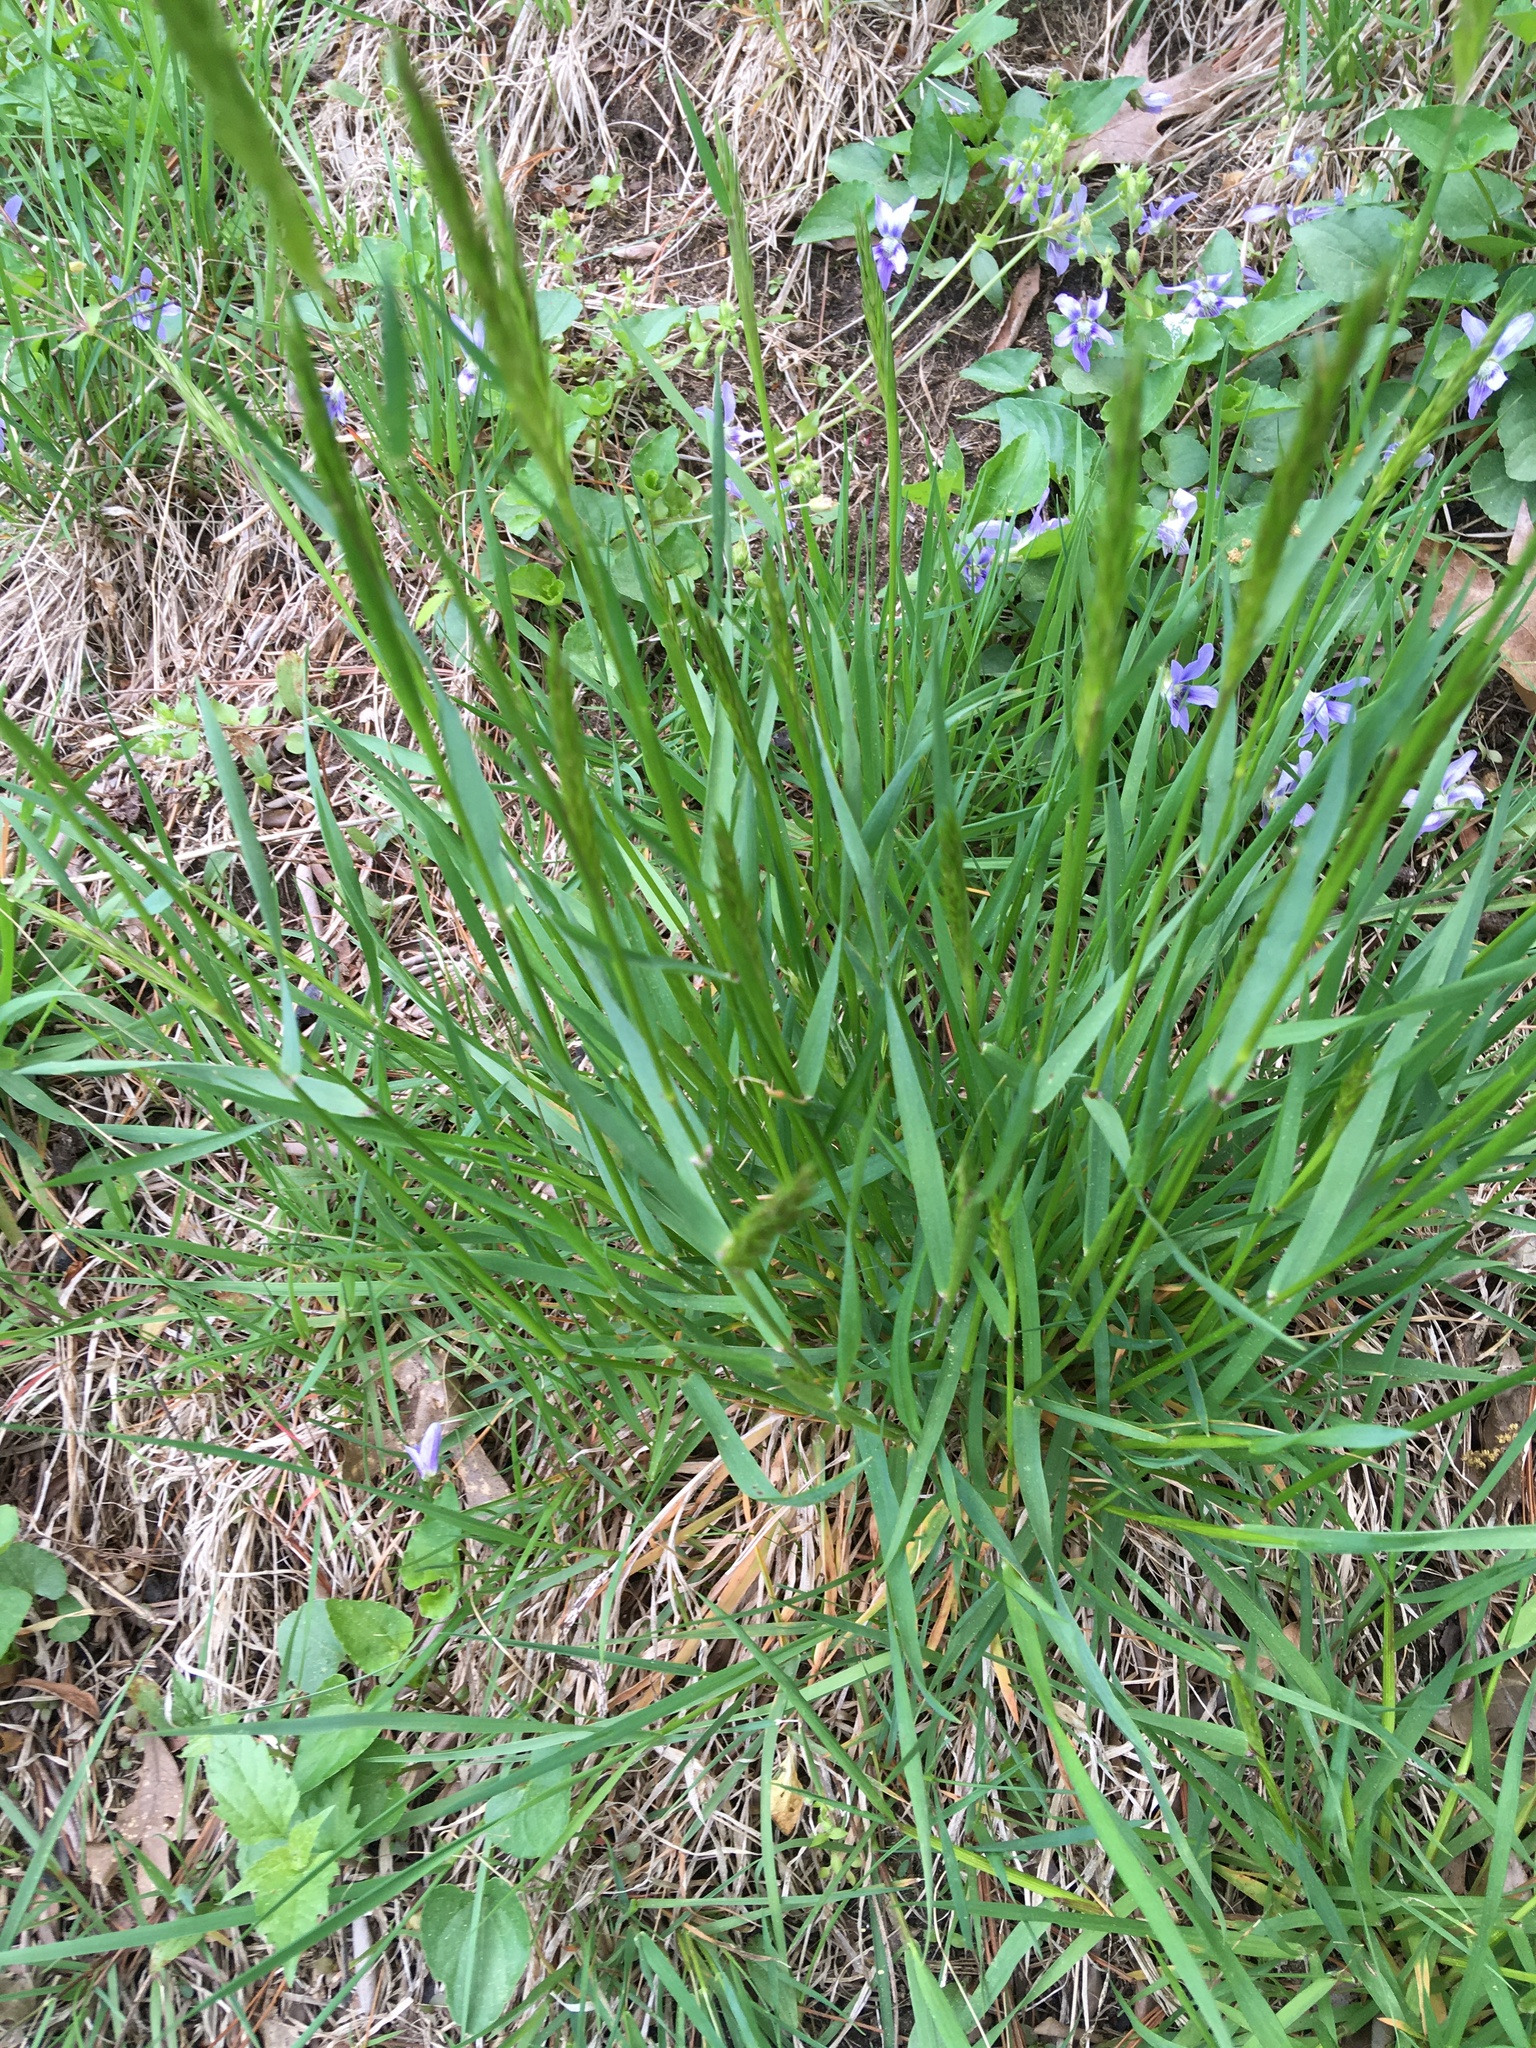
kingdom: Plantae
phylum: Tracheophyta
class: Liliopsida
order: Poales
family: Poaceae
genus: Anthoxanthum
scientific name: Anthoxanthum odoratum
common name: Sweet vernalgrass
